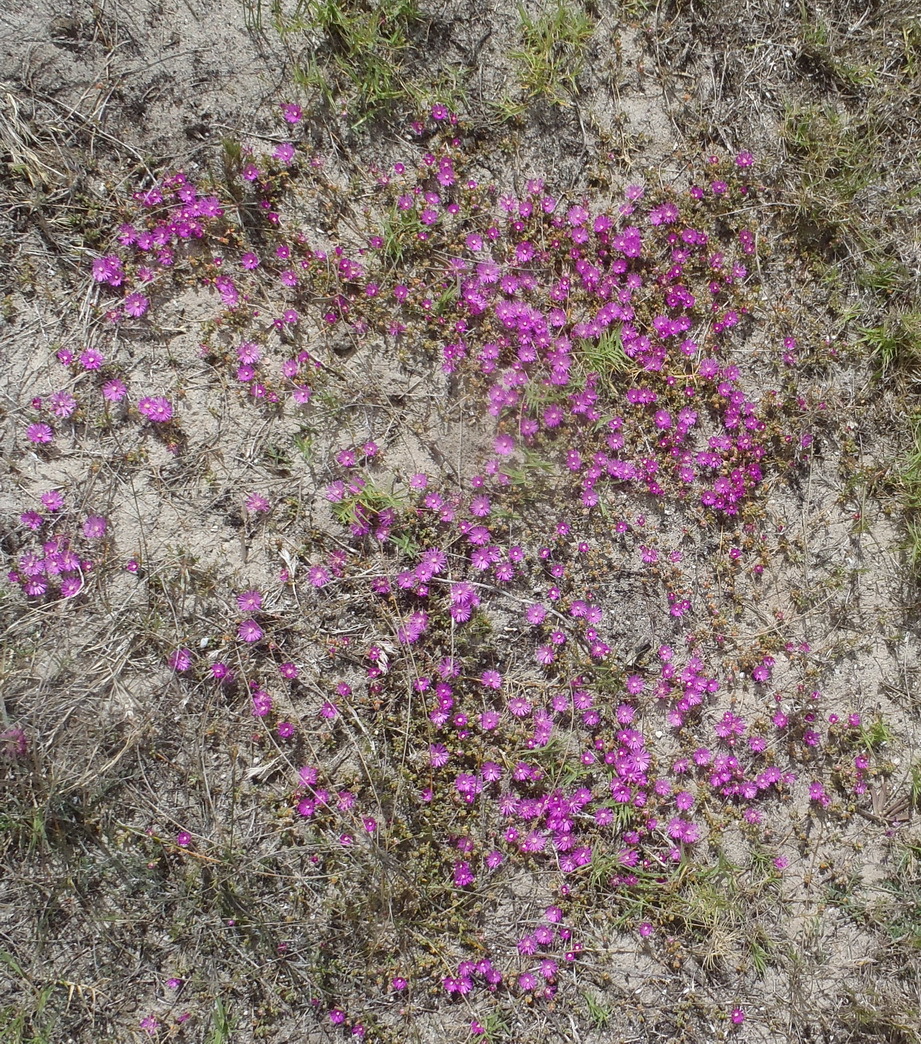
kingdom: Plantae
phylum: Tracheophyta
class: Magnoliopsida
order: Caryophyllales
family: Aizoaceae
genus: Drosanthemum
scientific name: Drosanthemum calcareum
